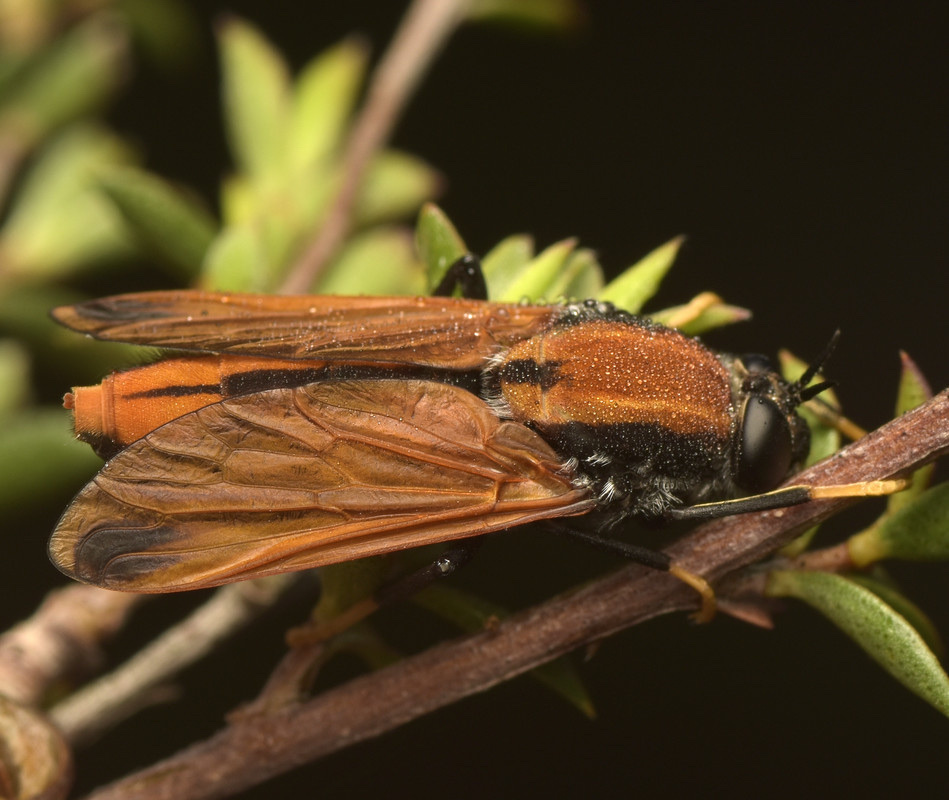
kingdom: Animalia
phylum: Arthropoda
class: Insecta
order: Diptera
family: Rhagionidae
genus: Pelecorhynchus
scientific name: Pelecorhynchus fulvus
